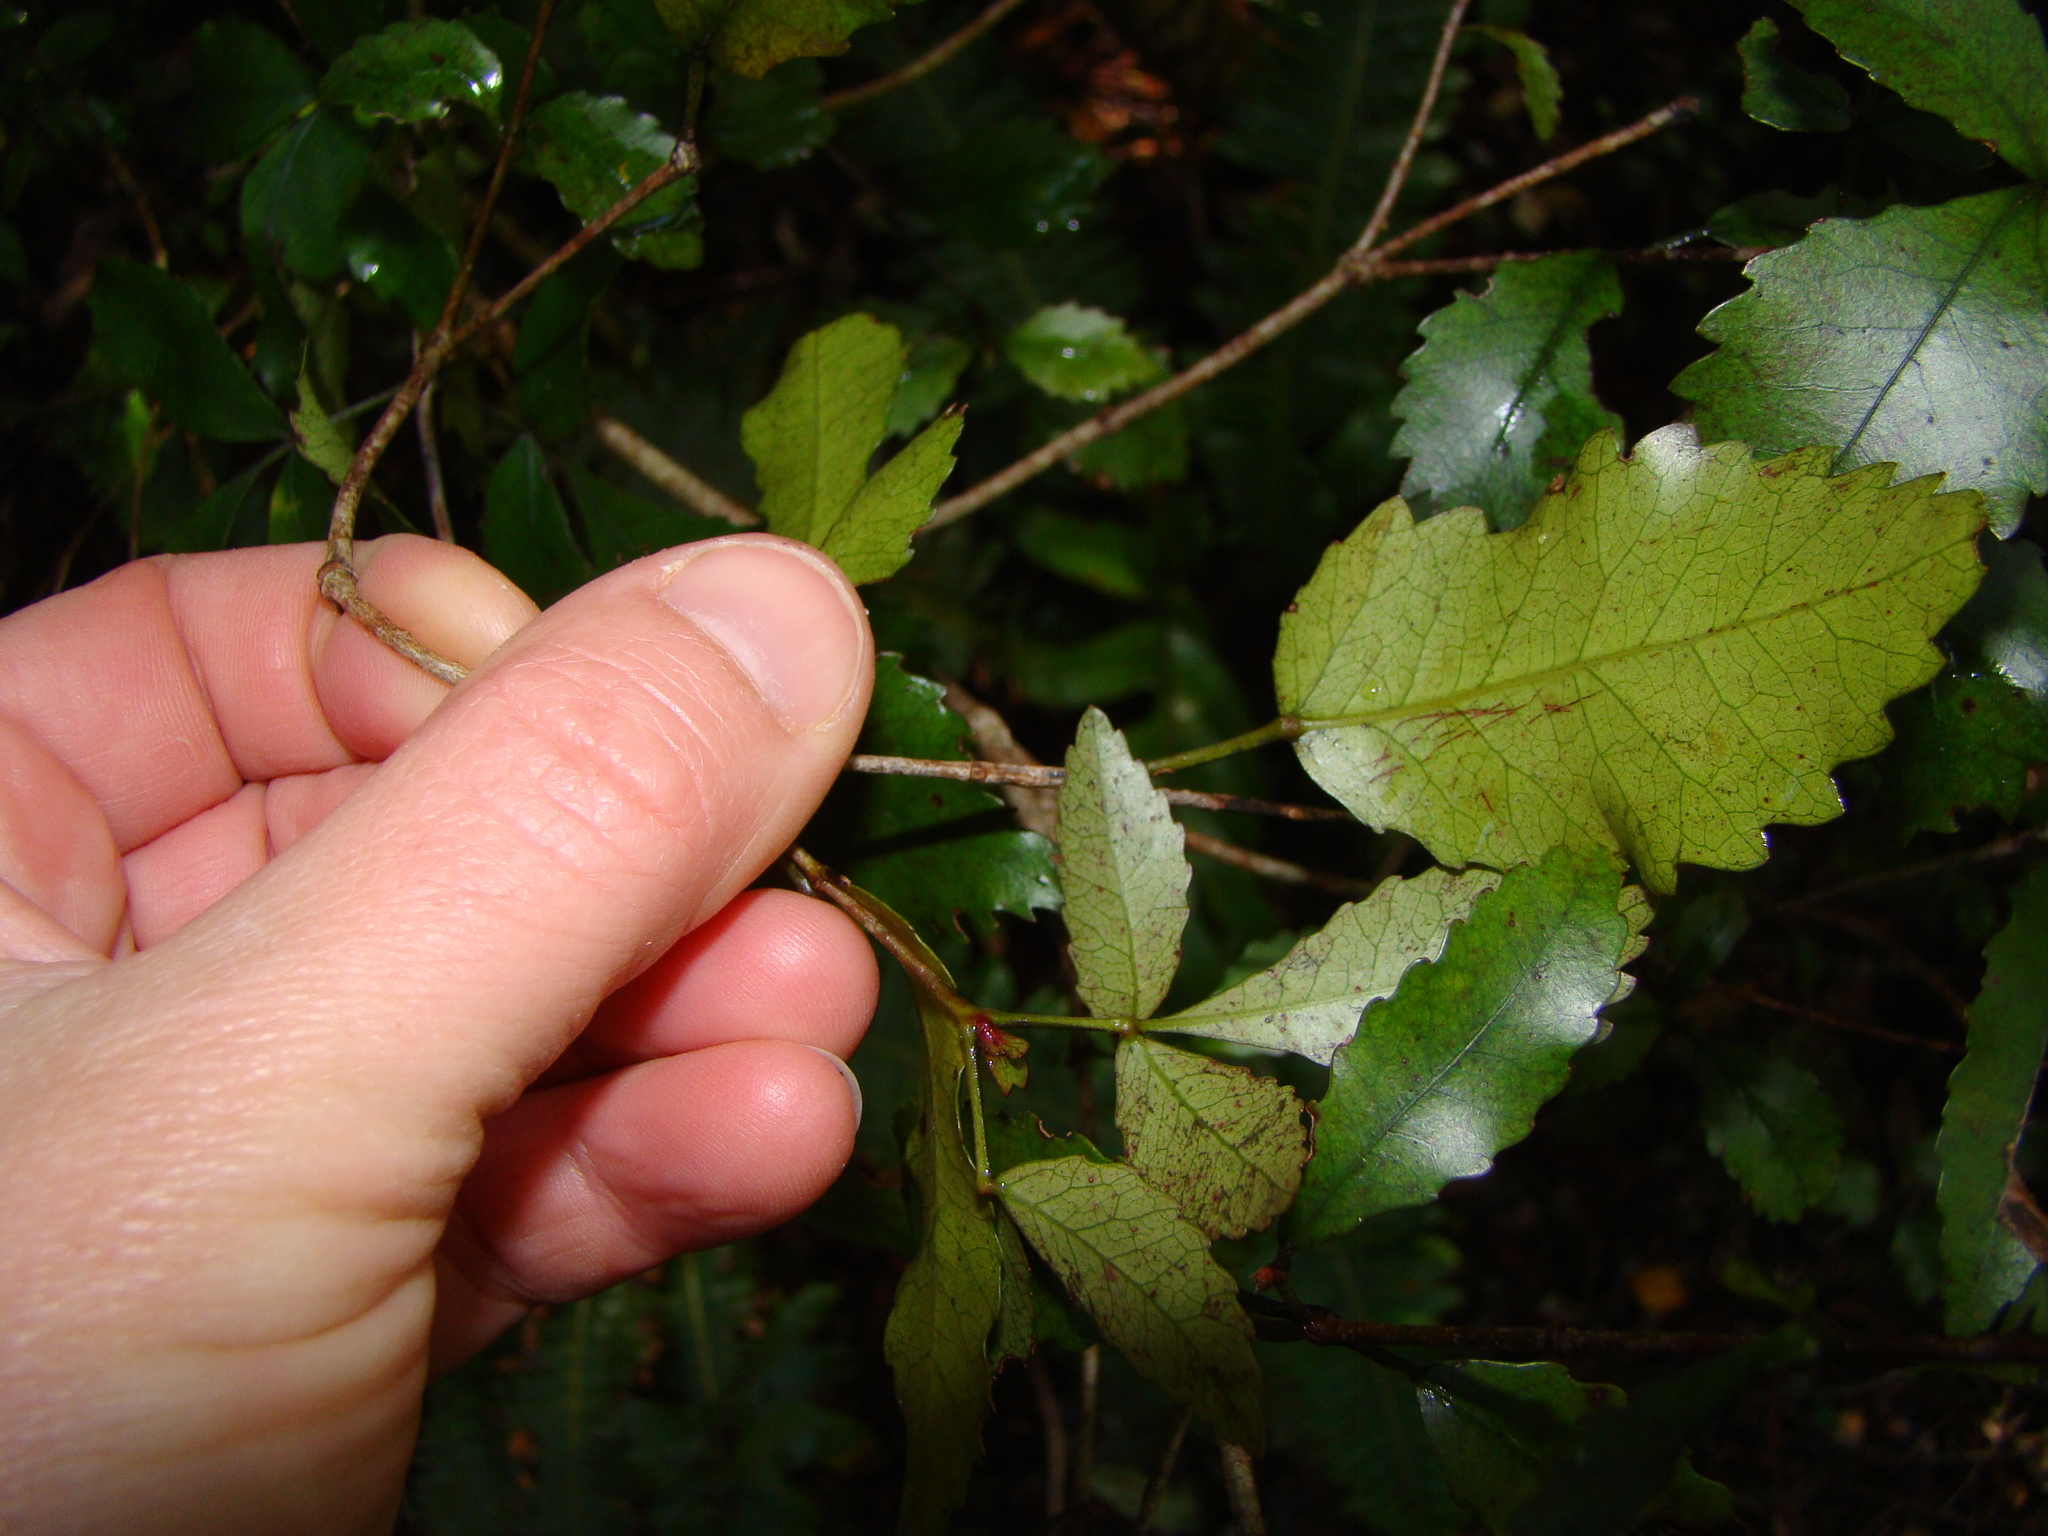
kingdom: Plantae
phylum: Tracheophyta
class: Magnoliopsida
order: Oxalidales
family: Cunoniaceae
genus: Pterophylla
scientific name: Pterophylla racemosa
